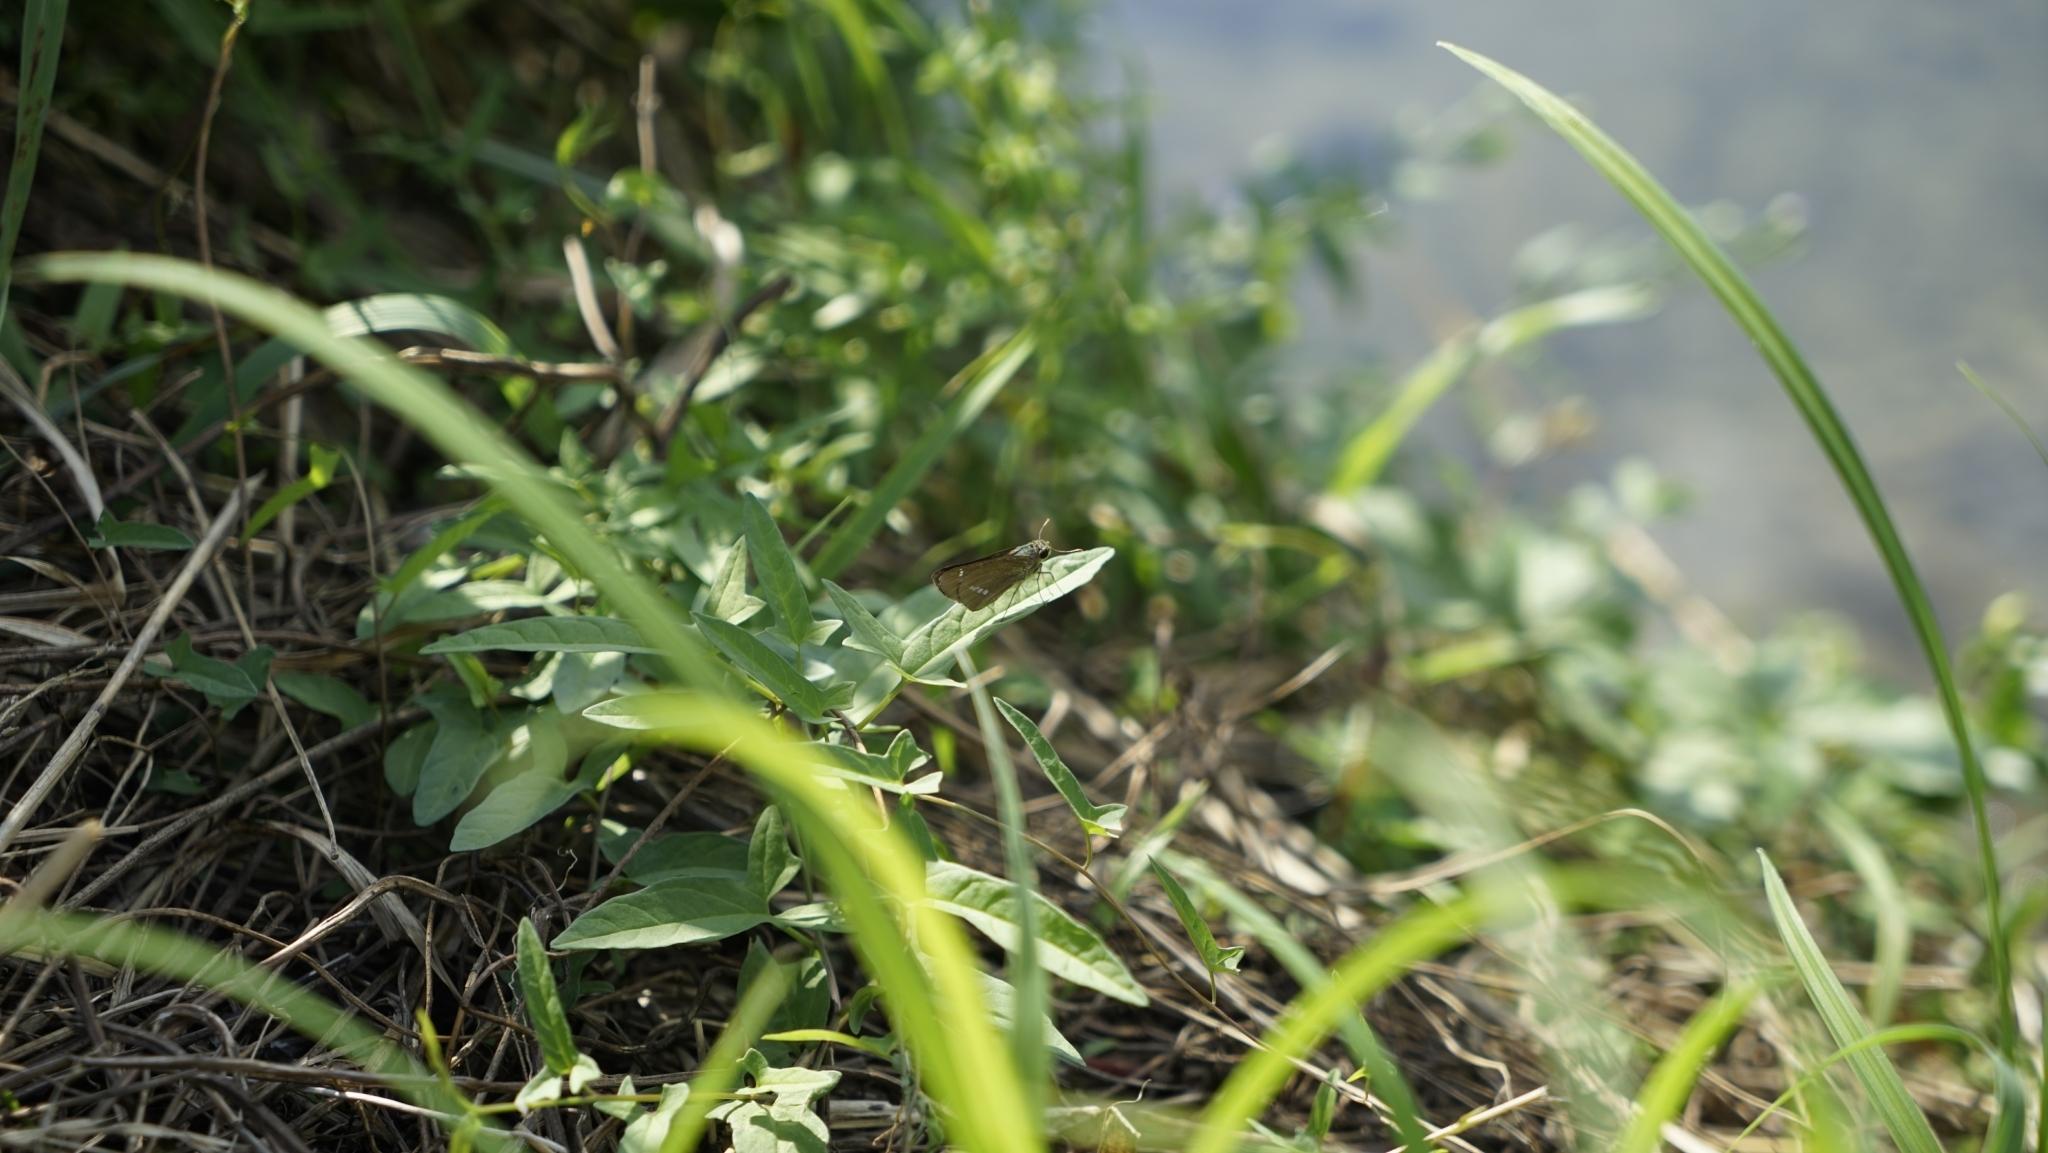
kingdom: Animalia
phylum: Arthropoda
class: Insecta
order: Lepidoptera
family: Hesperiidae
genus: Parnara
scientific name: Parnara guttatus
